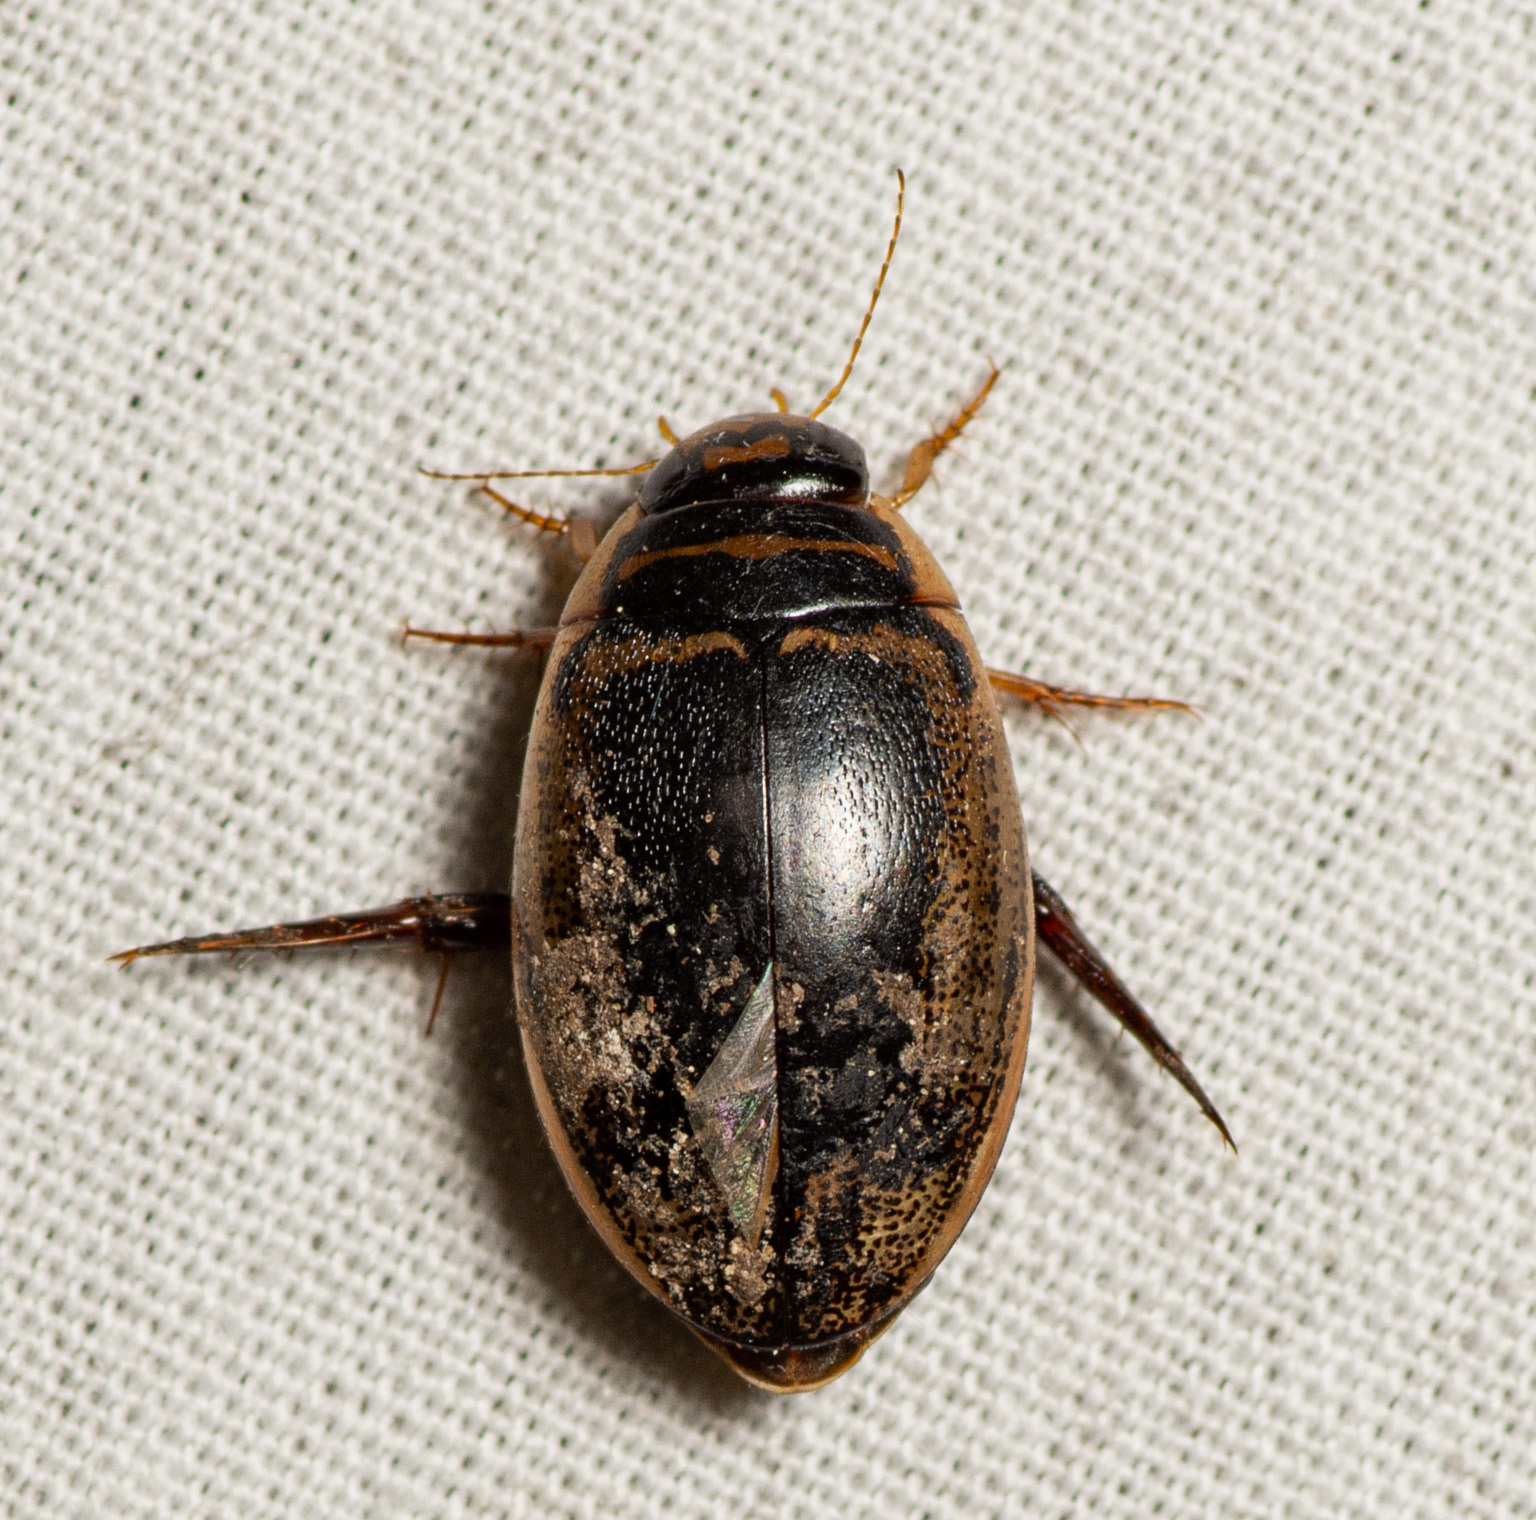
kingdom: Animalia
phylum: Arthropoda
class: Insecta
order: Coleoptera
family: Dytiscidae
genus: Thermonectus
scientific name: Thermonectus basillaris
